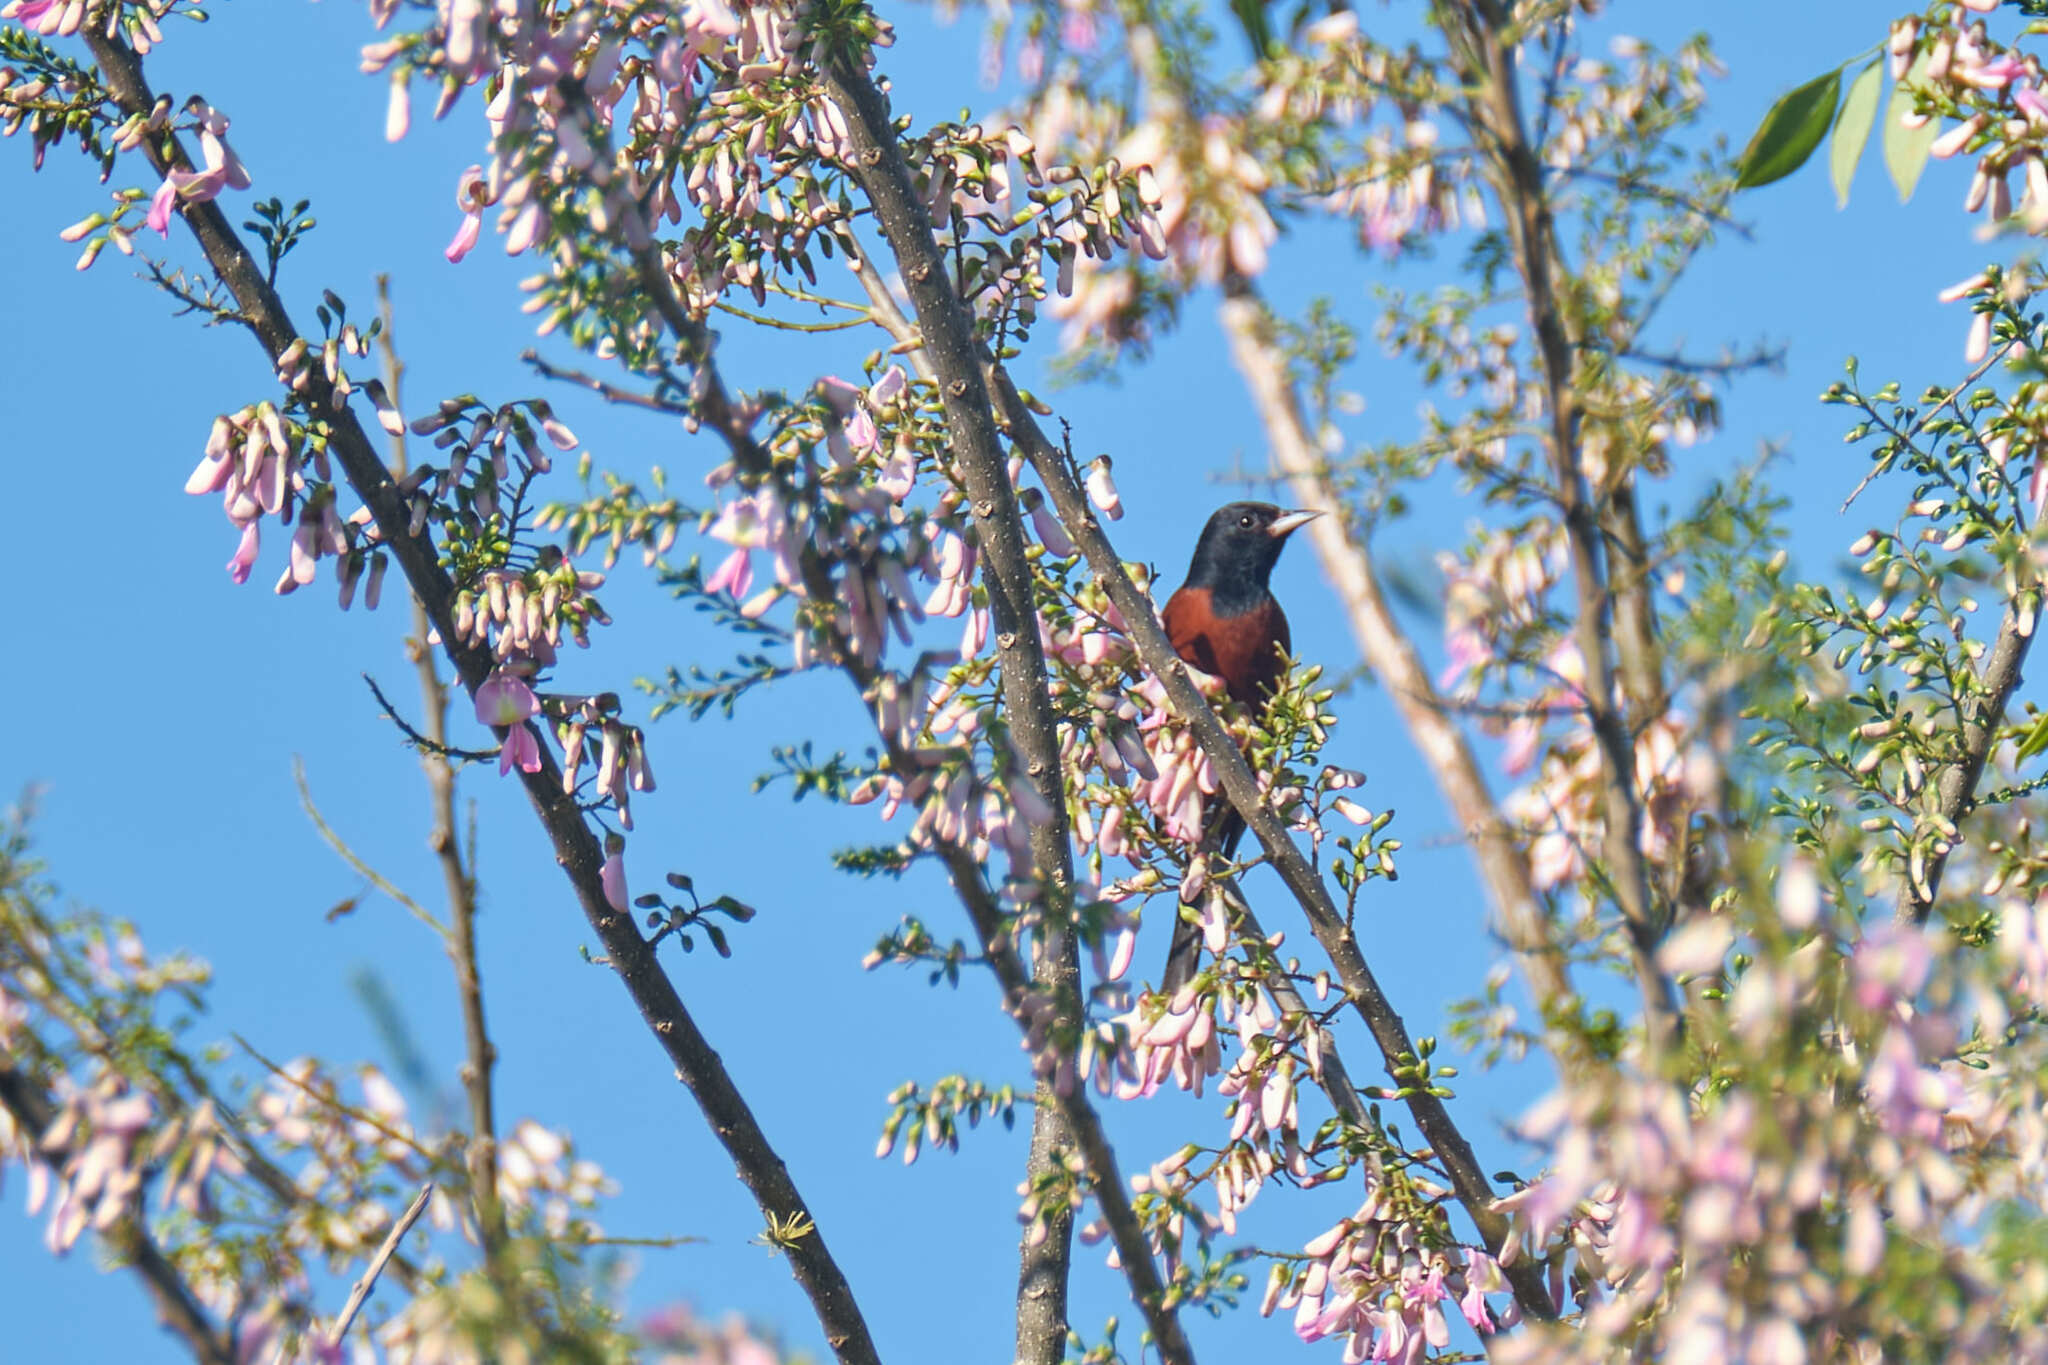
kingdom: Animalia
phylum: Chordata
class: Aves
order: Passeriformes
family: Icteridae
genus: Icterus
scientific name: Icterus spurius
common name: Orchard oriole
